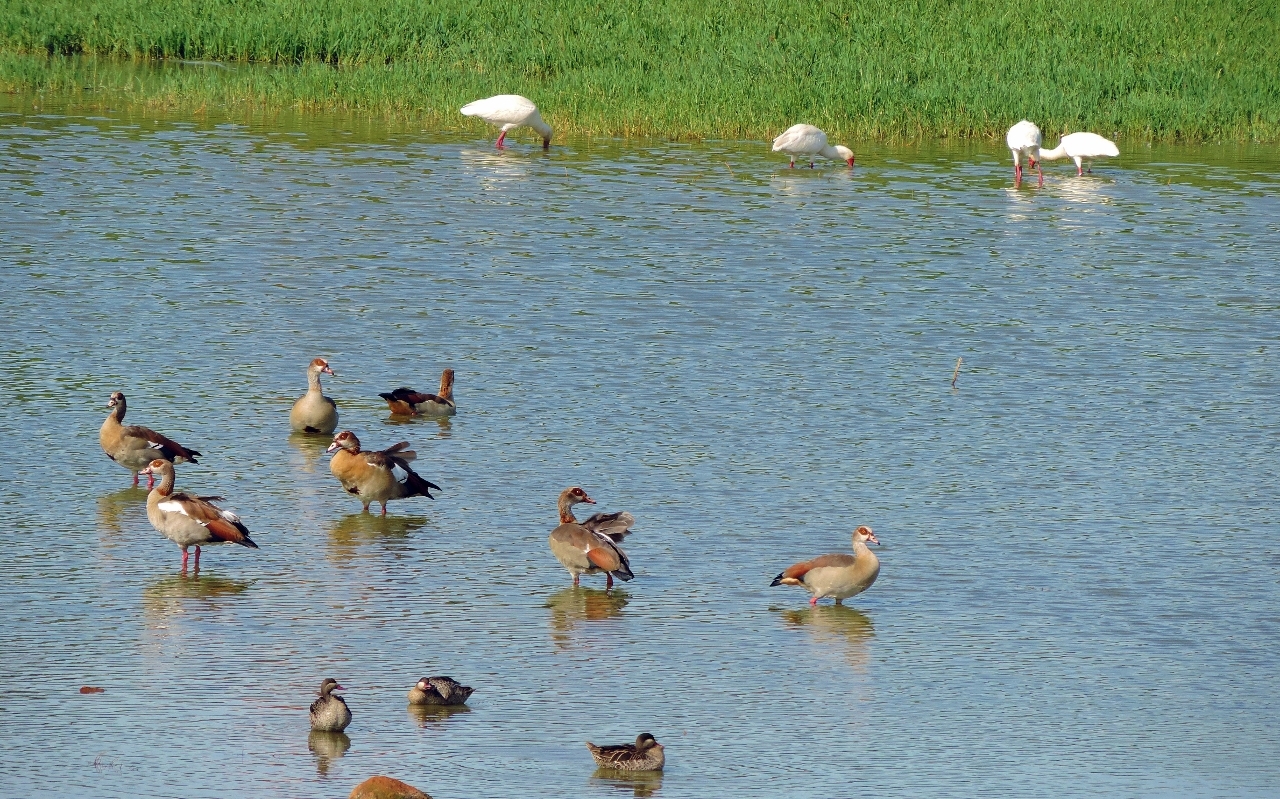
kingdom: Animalia
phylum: Chordata
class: Aves
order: Anseriformes
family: Anatidae
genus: Alopochen
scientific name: Alopochen aegyptiaca
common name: Egyptian goose
